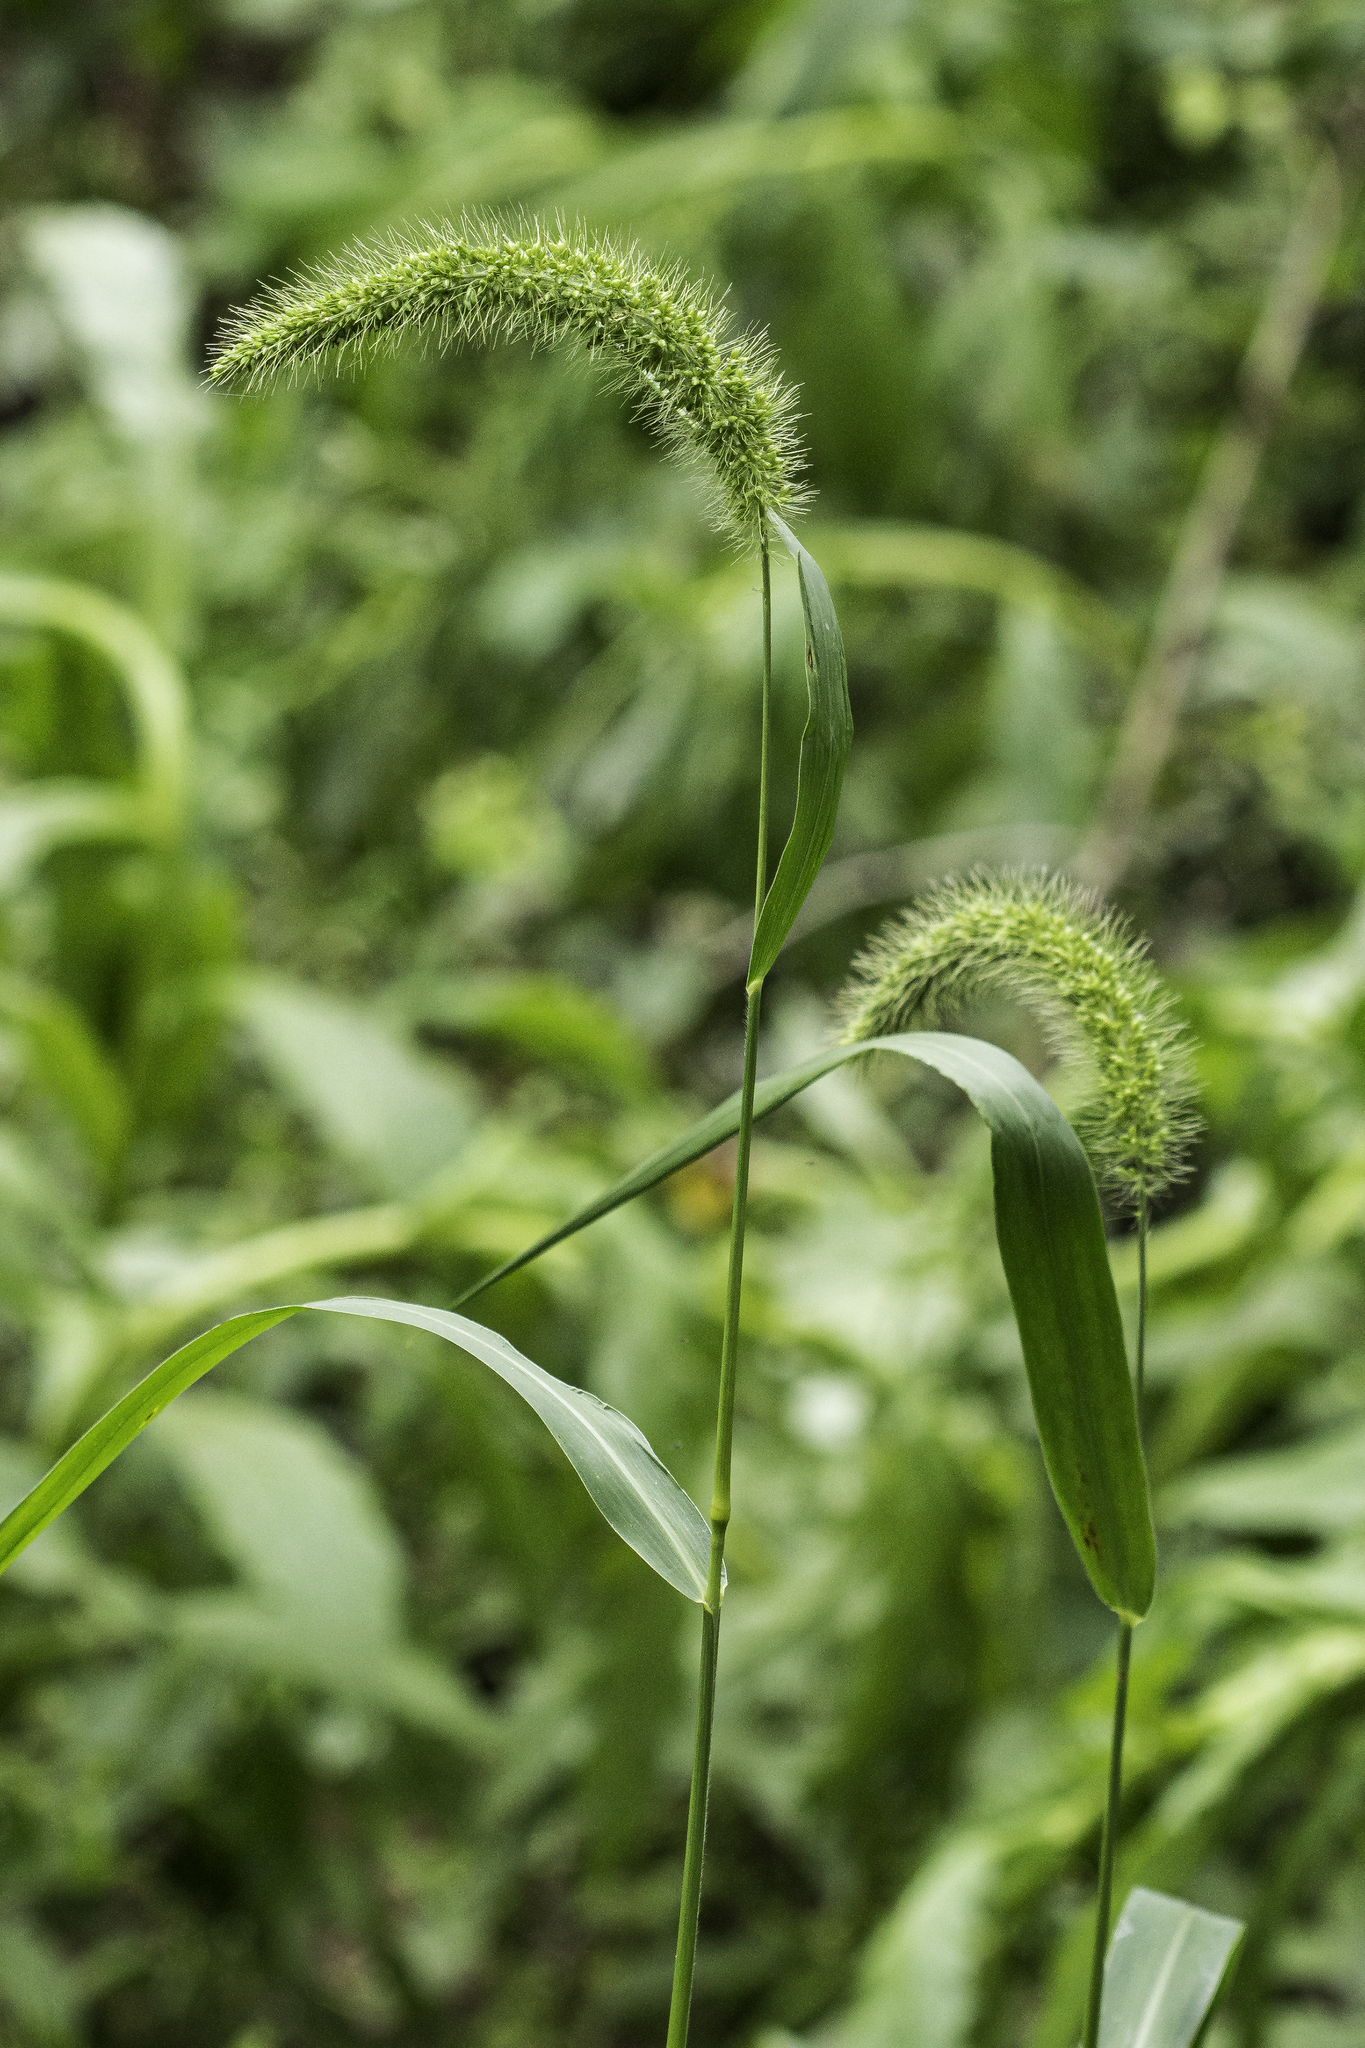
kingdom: Plantae
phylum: Tracheophyta
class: Liliopsida
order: Poales
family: Poaceae
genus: Setaria
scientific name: Setaria faberi
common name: Nodding bristle-grass
